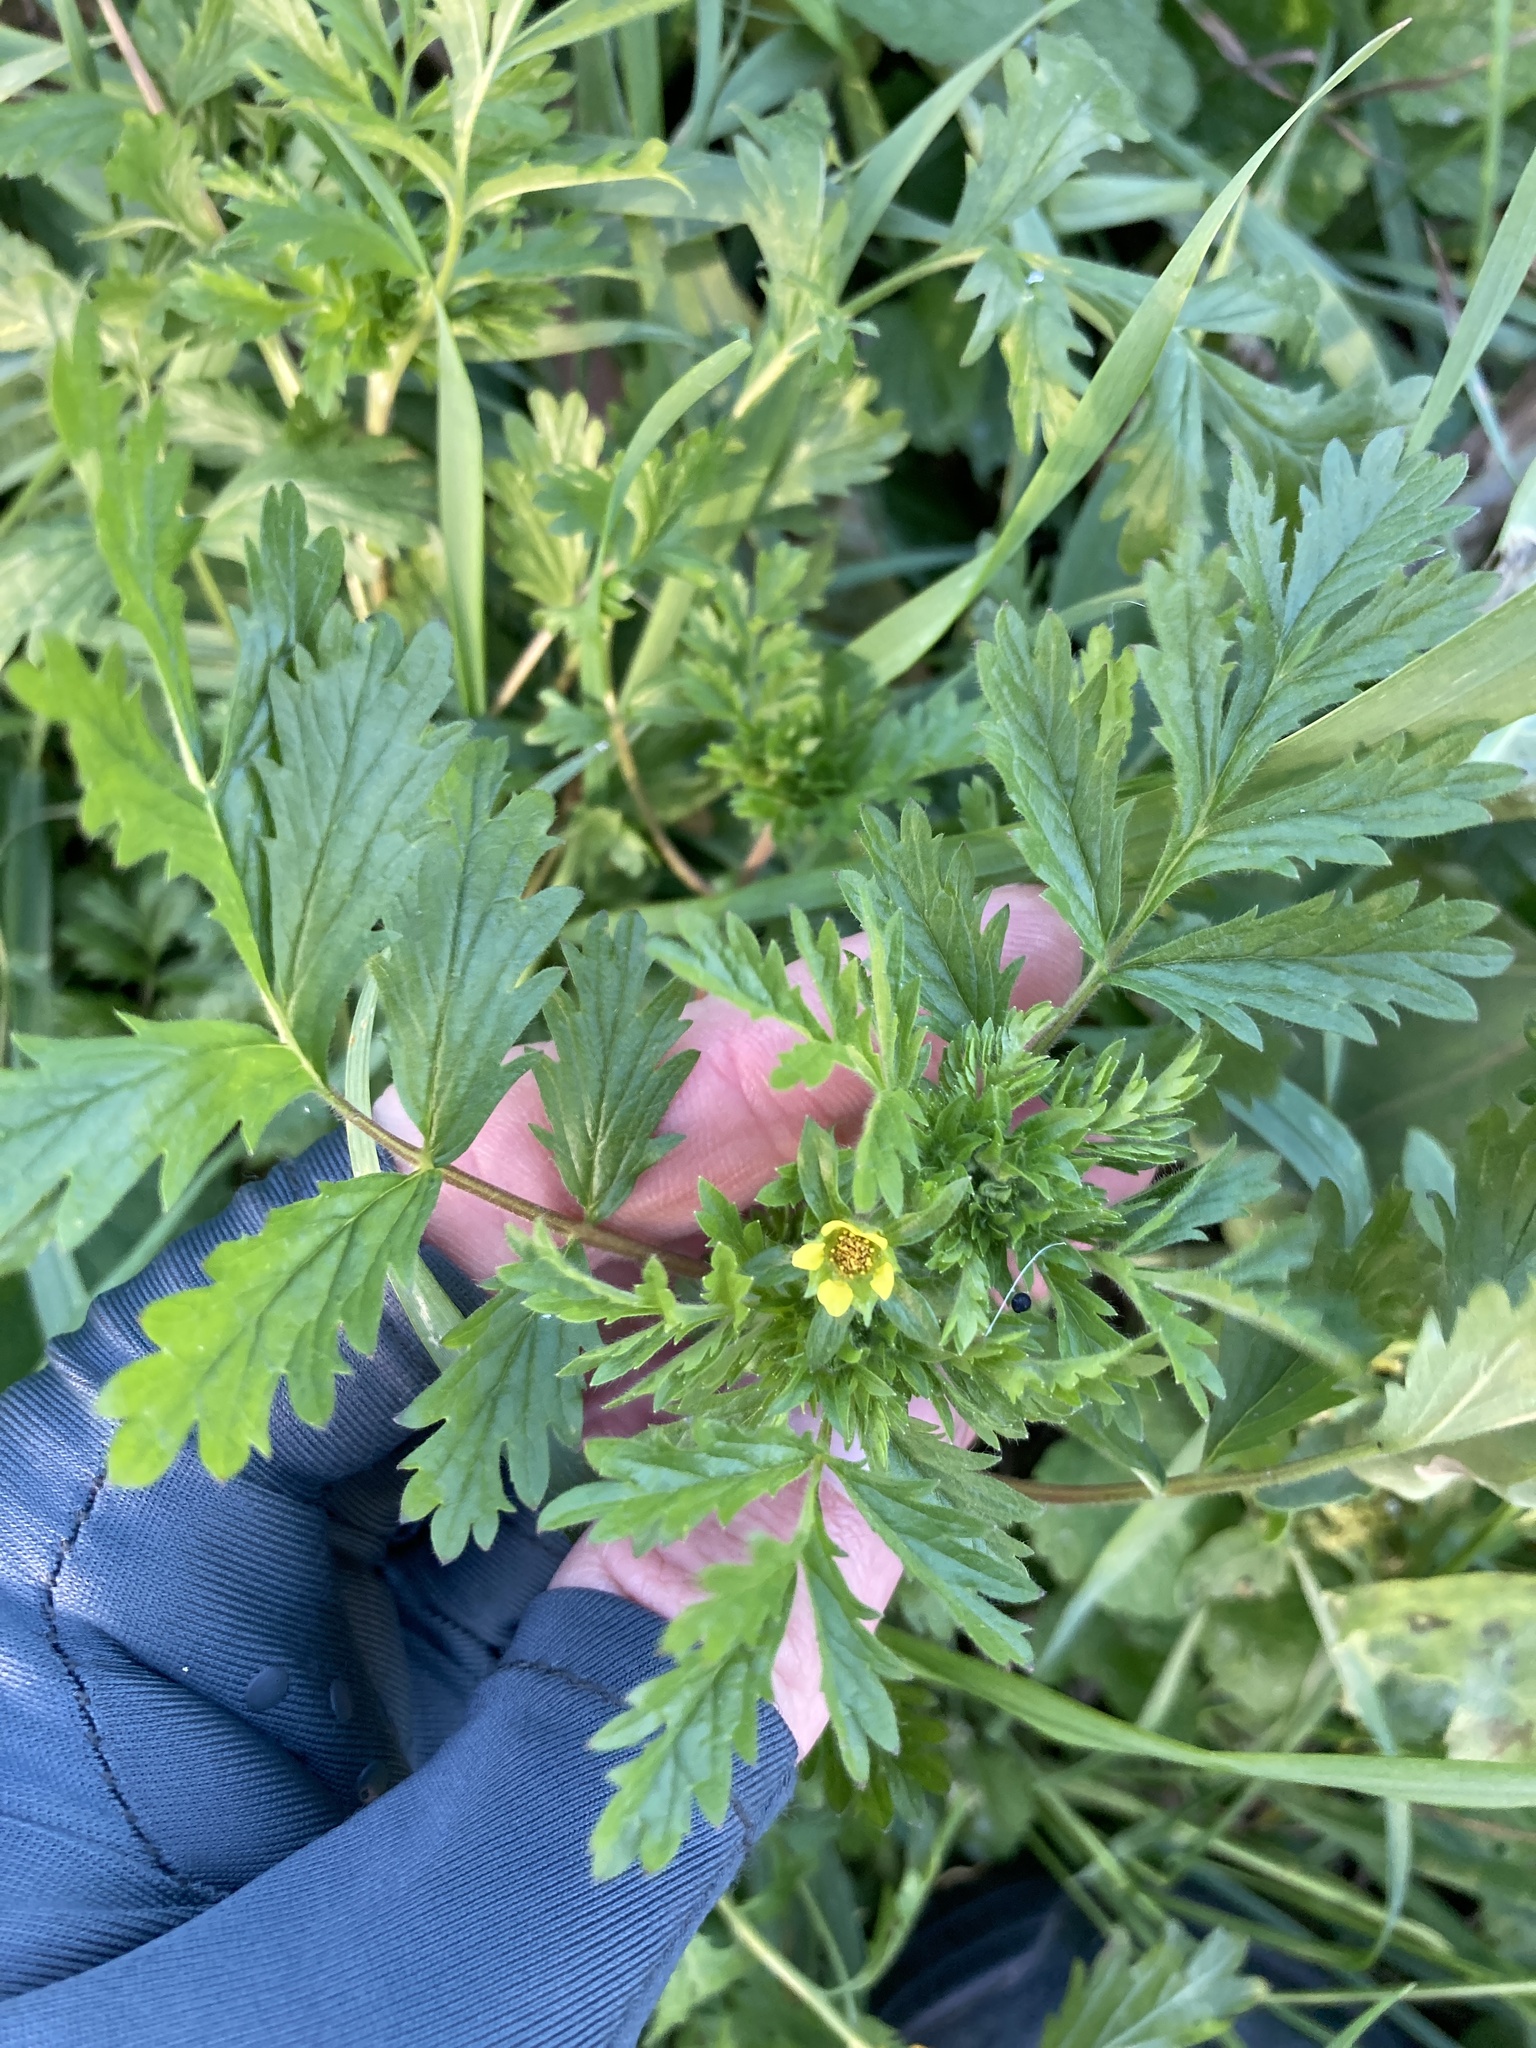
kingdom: Plantae
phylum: Tracheophyta
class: Magnoliopsida
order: Rosales
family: Rosaceae
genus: Potentilla
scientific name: Potentilla supina
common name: Prostrate cinquefoil
